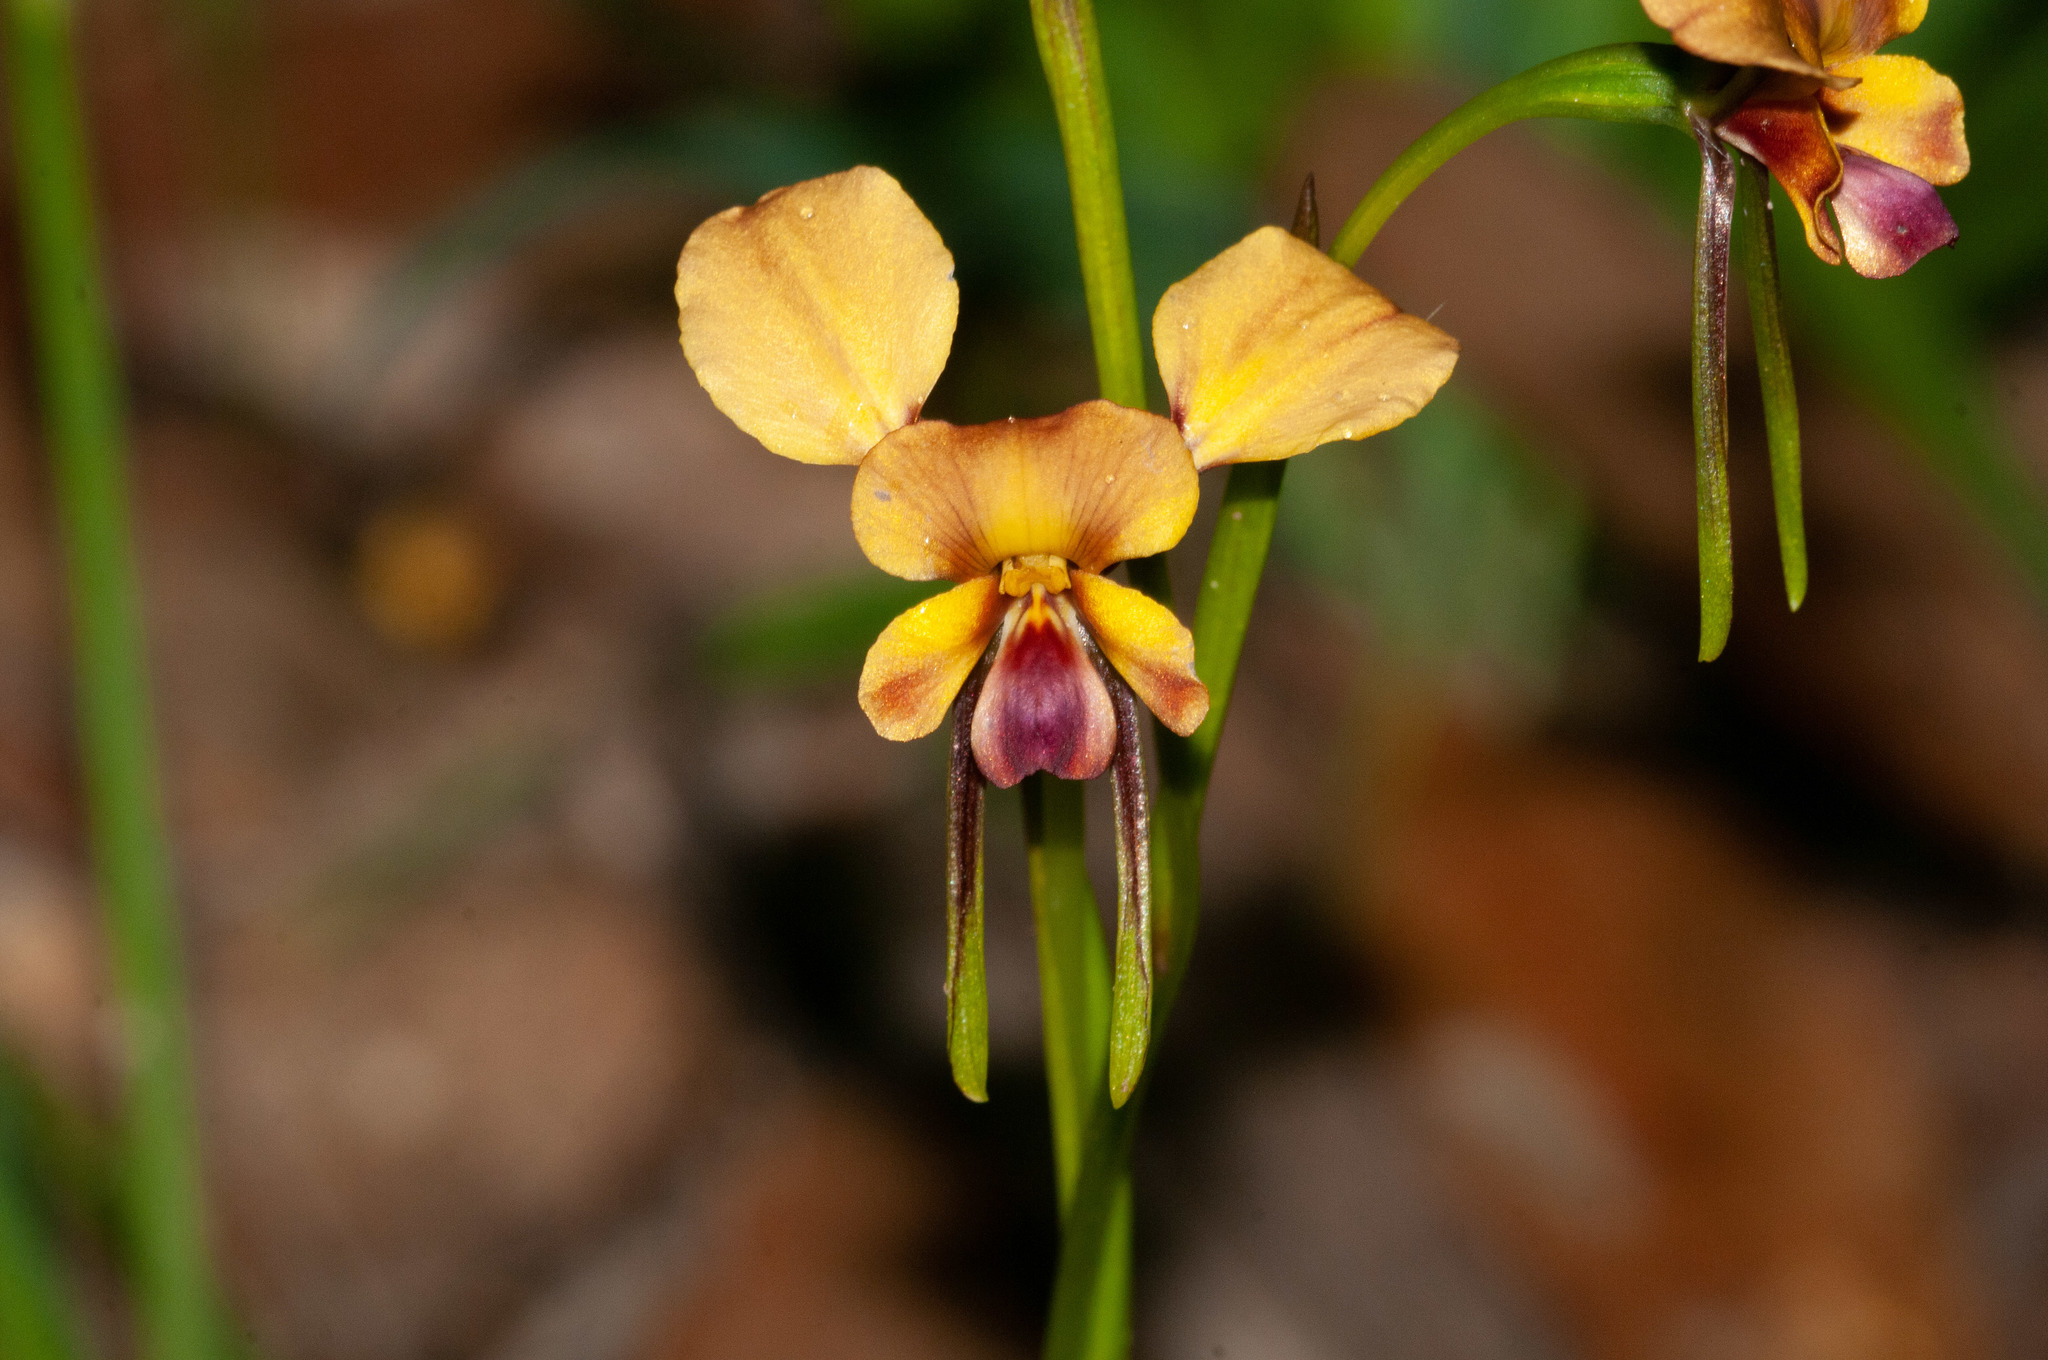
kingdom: Plantae
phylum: Tracheophyta
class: Liliopsida
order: Asparagales
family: Orchidaceae
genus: Diuris
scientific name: Diuris orientis
